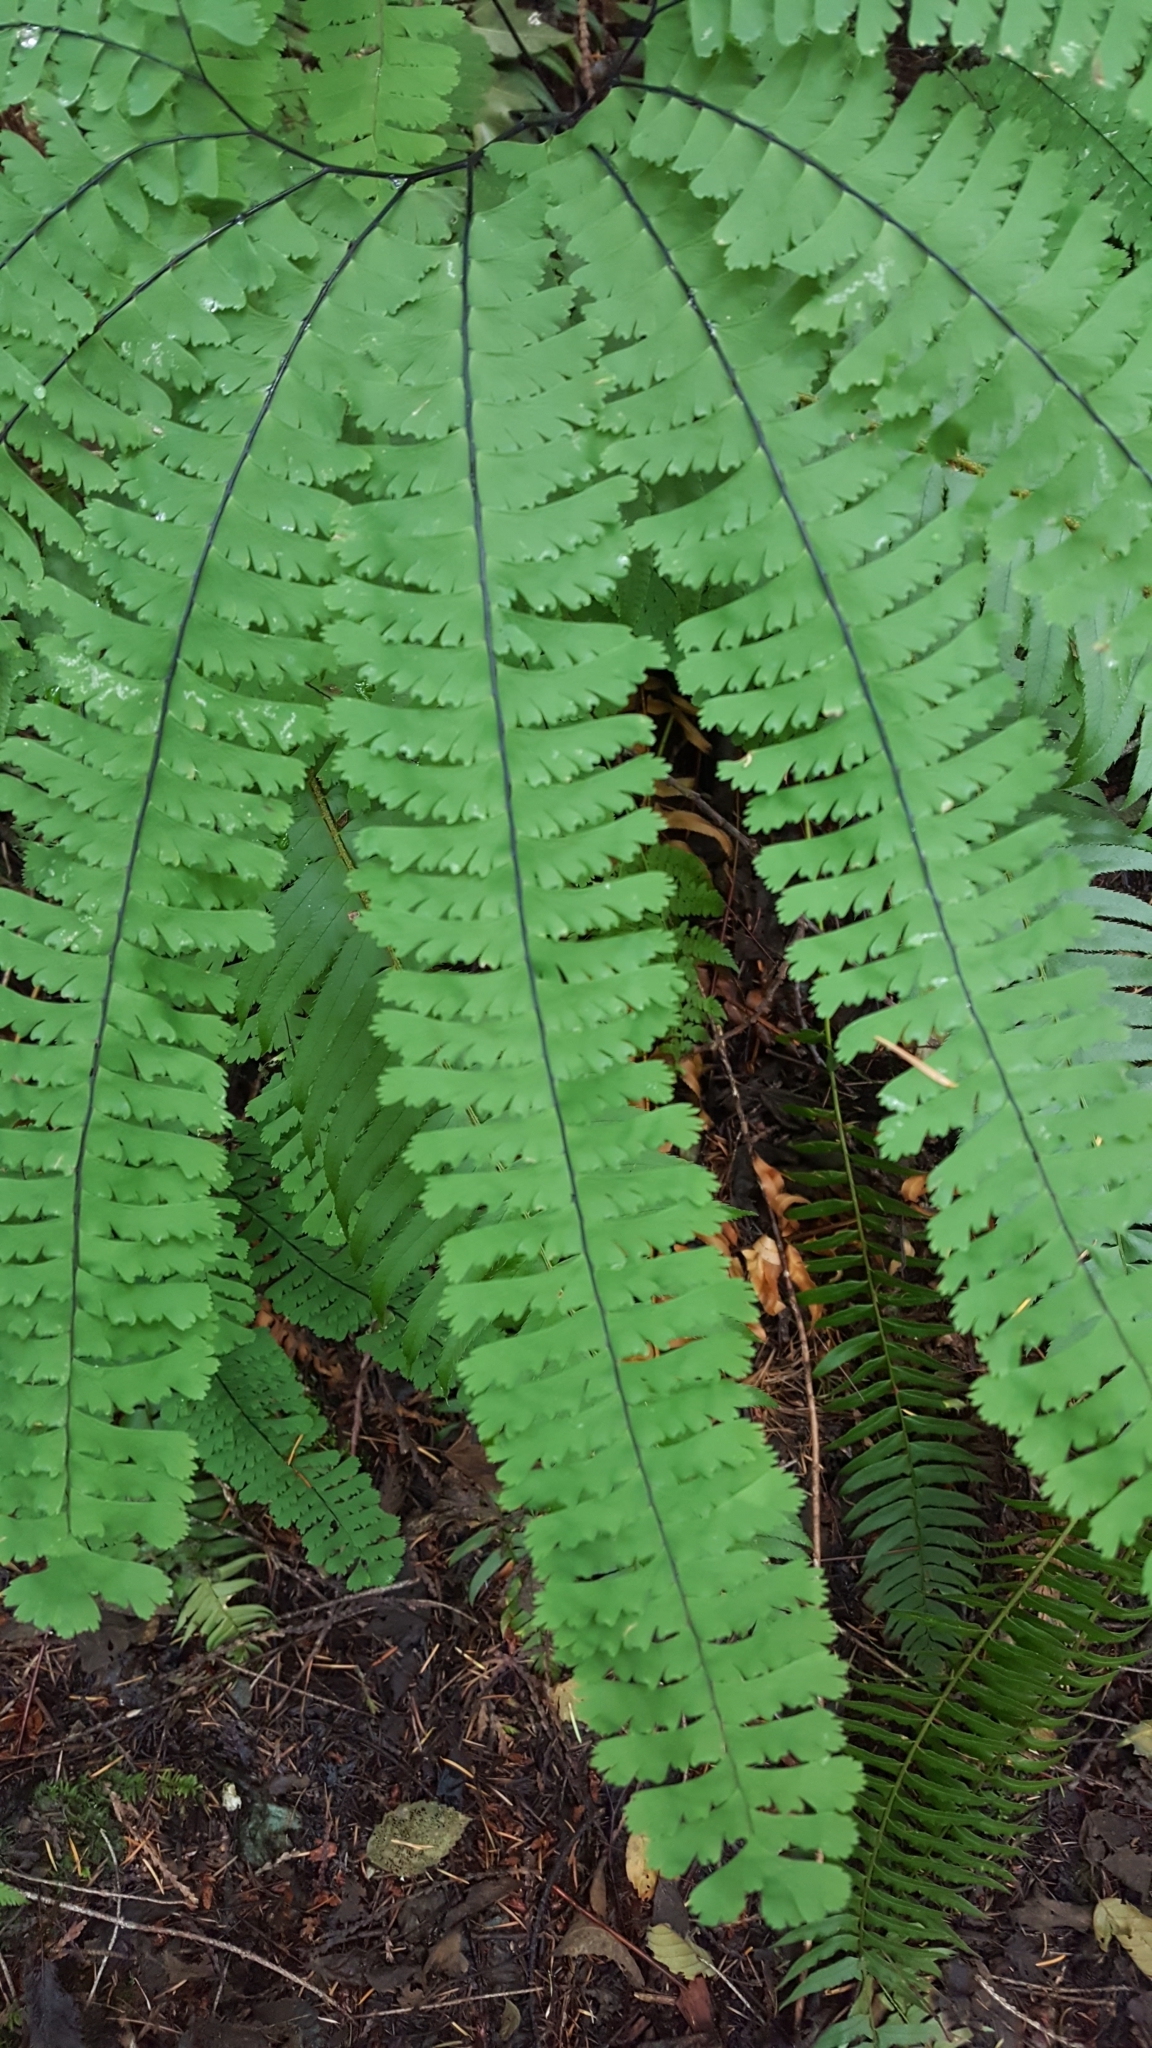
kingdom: Plantae
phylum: Tracheophyta
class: Polypodiopsida
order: Polypodiales
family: Pteridaceae
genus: Adiantum
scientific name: Adiantum aleuticum
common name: Aleutian maidenhair fern
